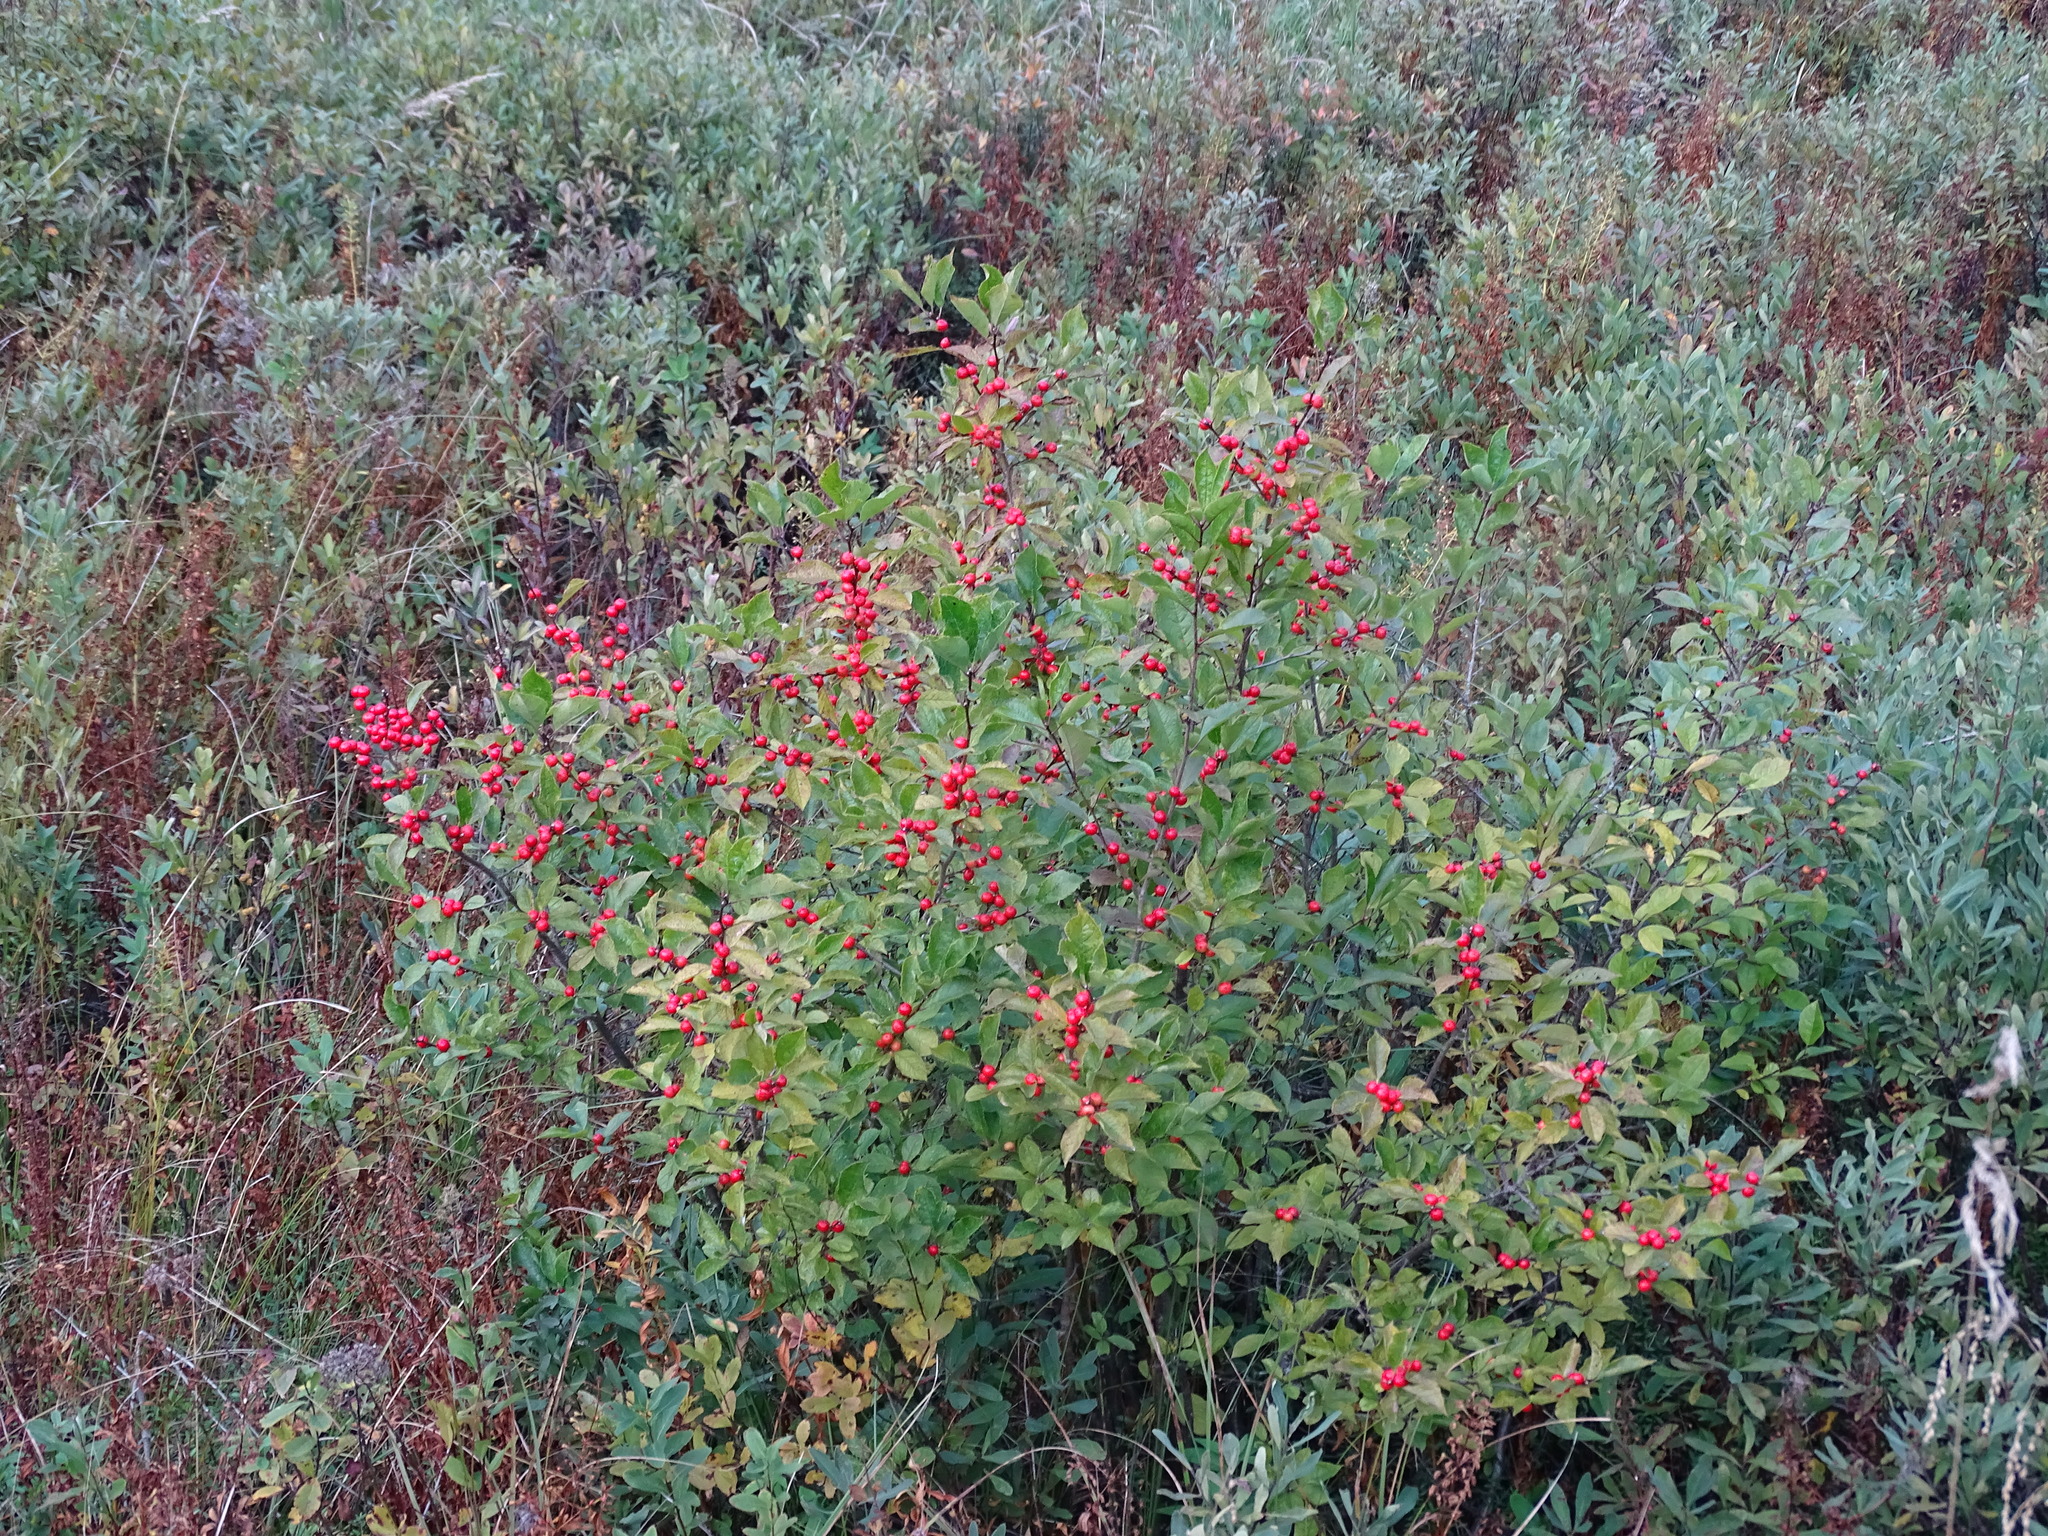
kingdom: Plantae
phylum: Tracheophyta
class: Magnoliopsida
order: Aquifoliales
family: Aquifoliaceae
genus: Ilex
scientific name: Ilex verticillata
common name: Virginia winterberry
